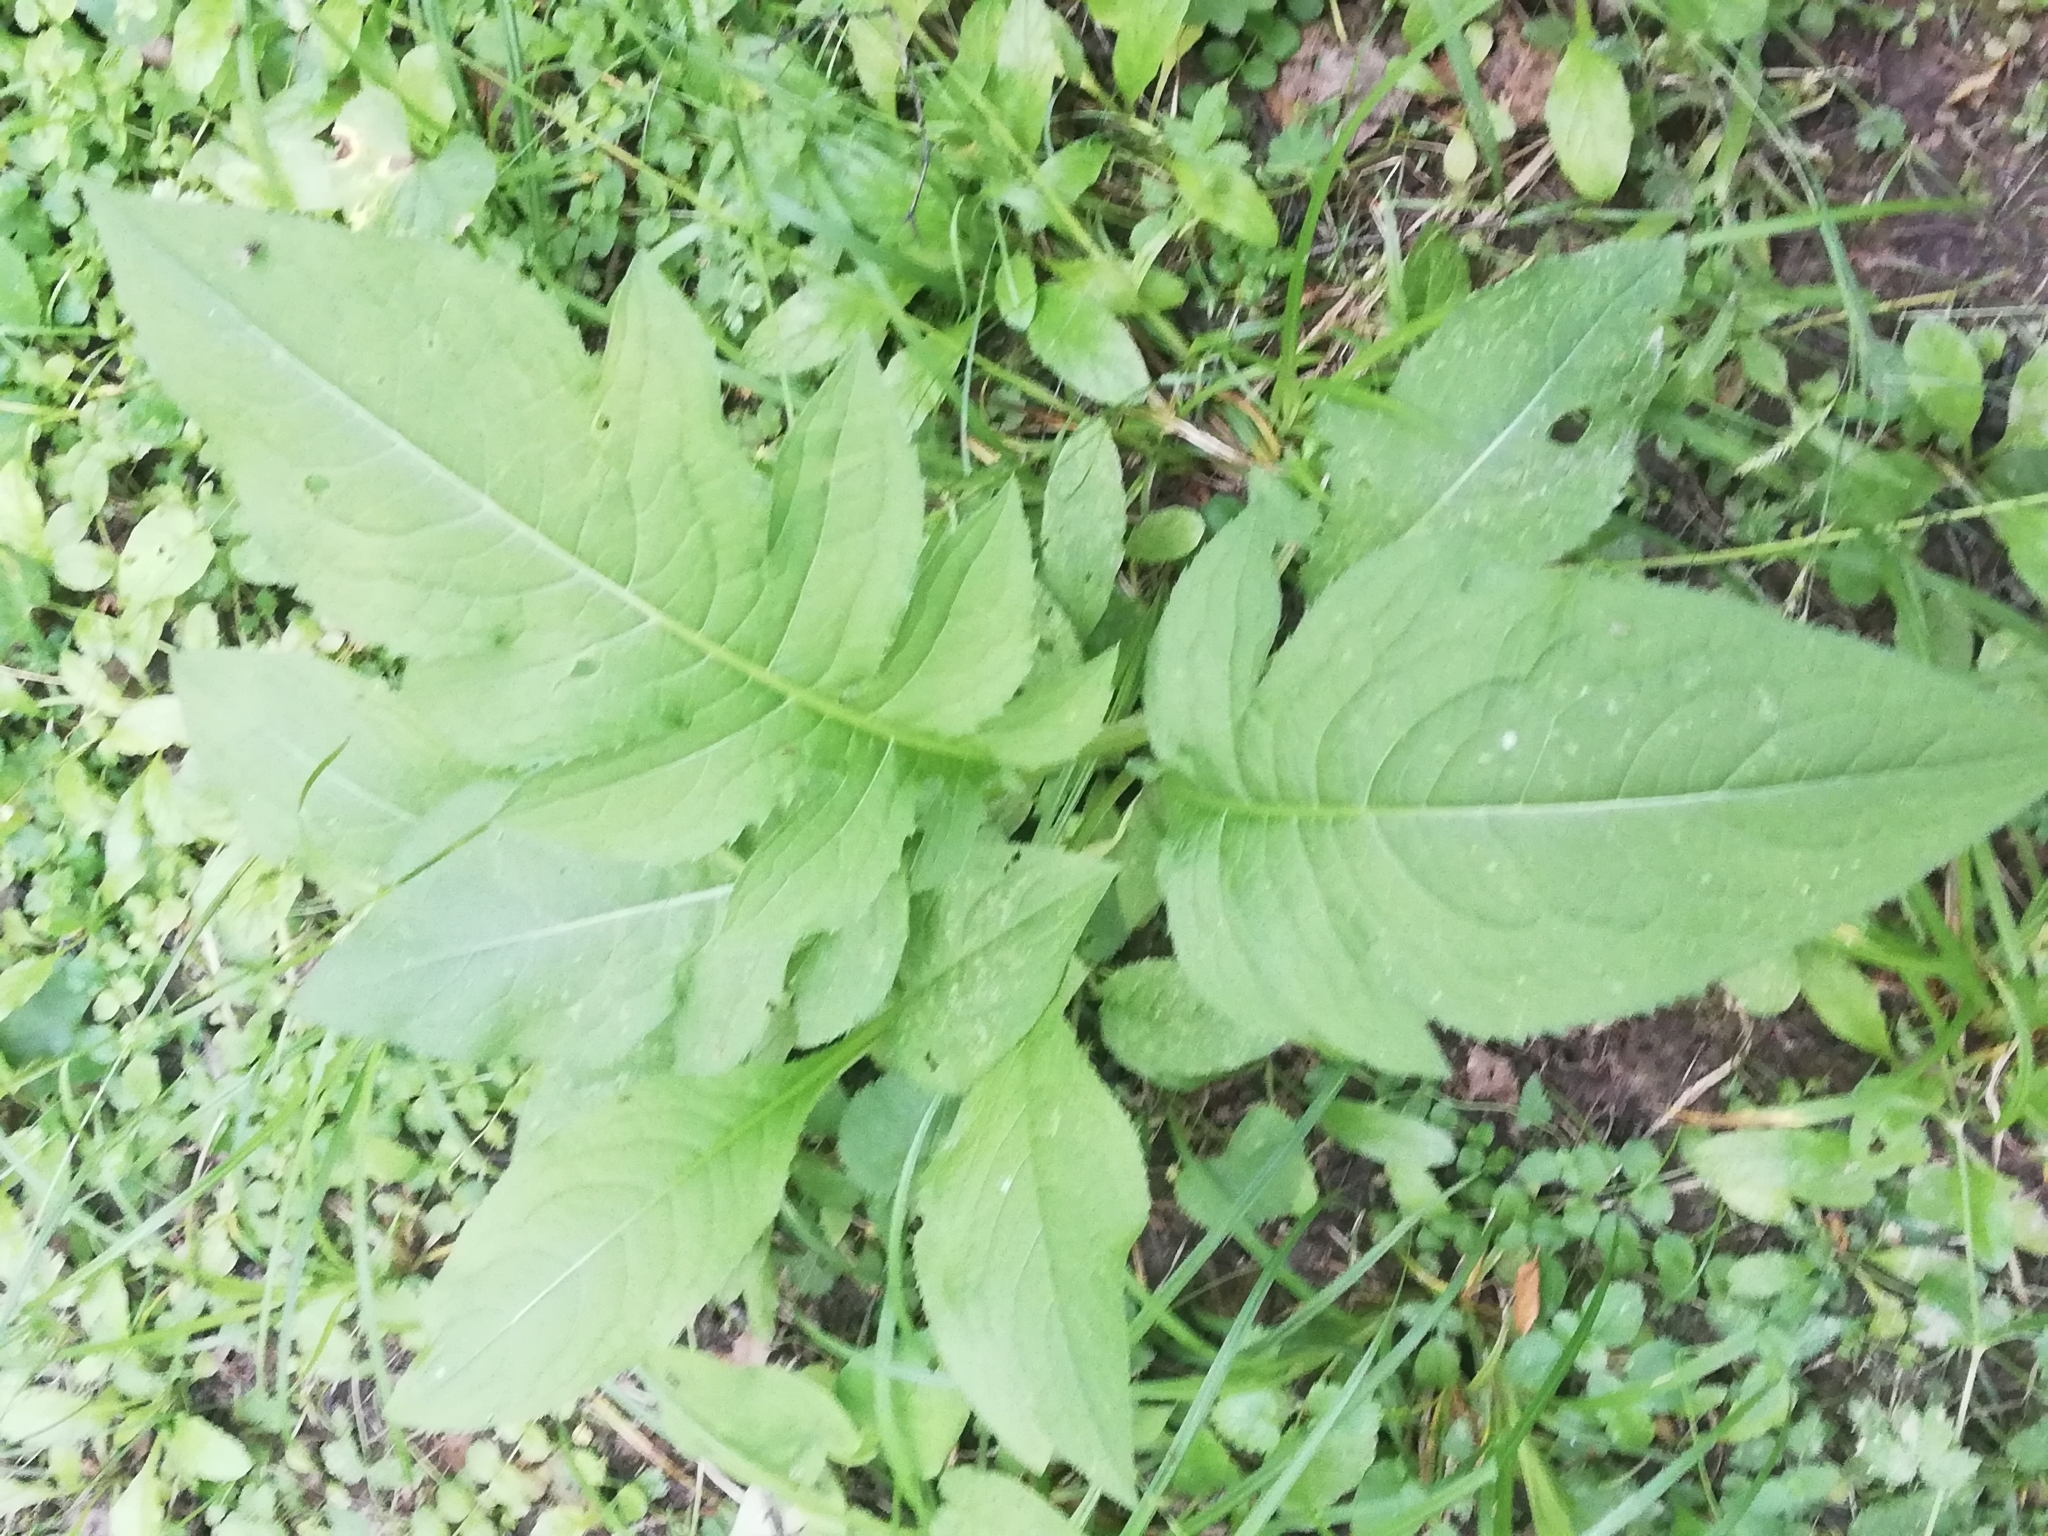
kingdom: Plantae
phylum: Tracheophyta
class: Magnoliopsida
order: Asterales
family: Asteraceae
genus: Cirsium
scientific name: Cirsium oleraceum
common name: Cabbage thistle
